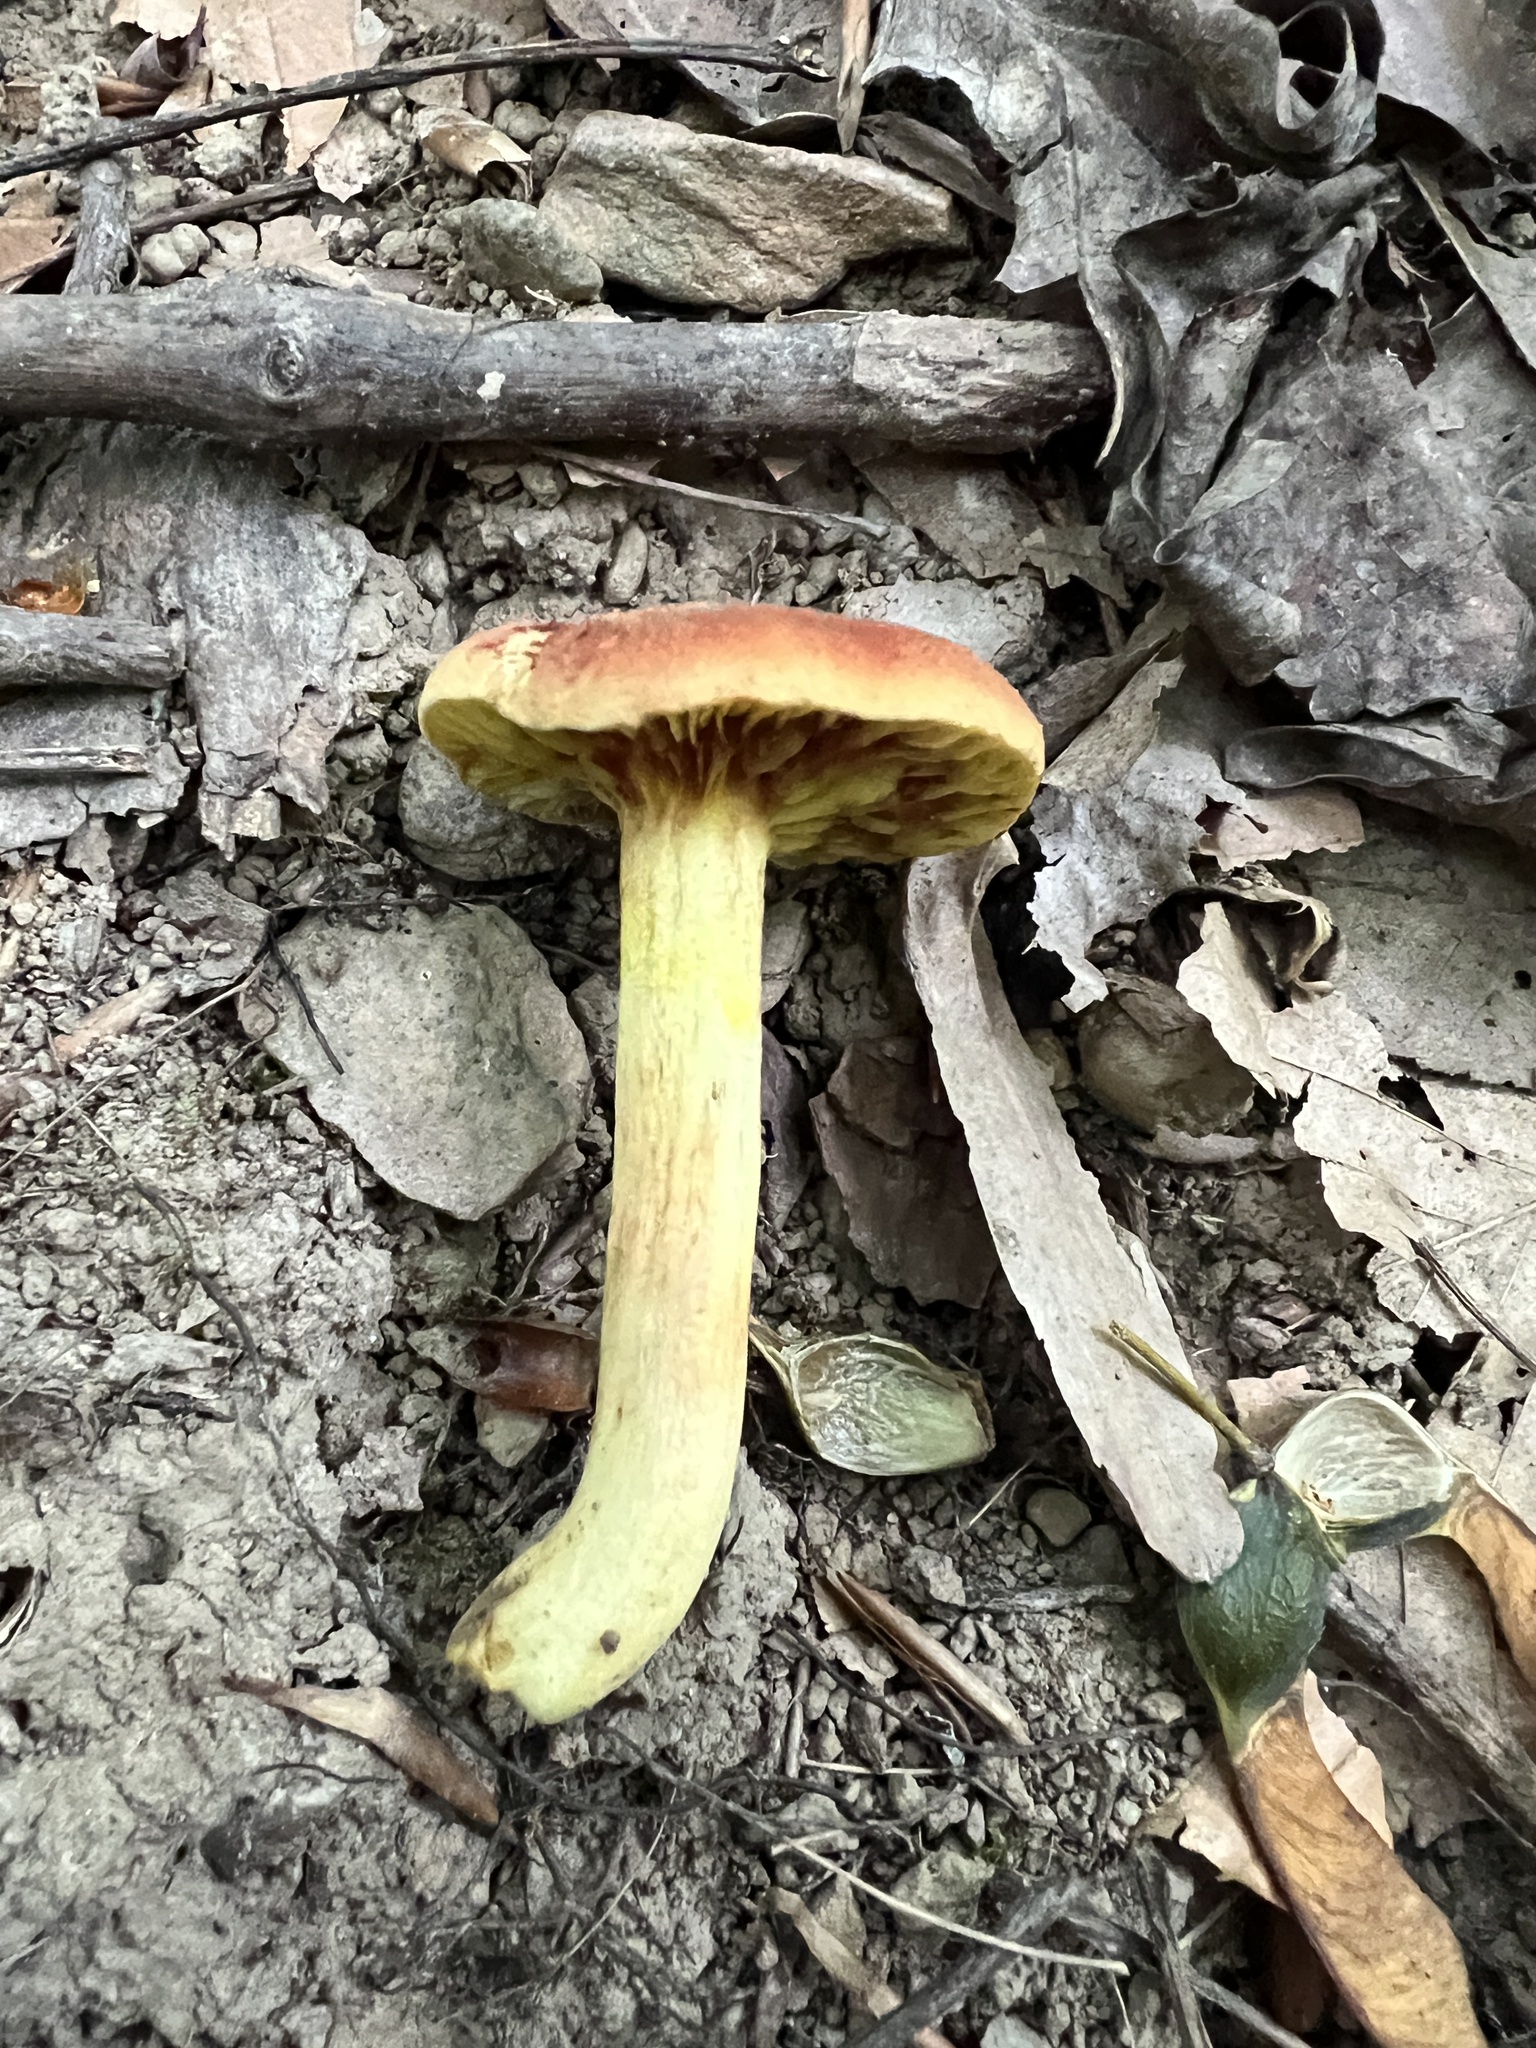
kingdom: Fungi
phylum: Basidiomycota
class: Agaricomycetes
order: Boletales
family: Boletaceae
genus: Phylloporus
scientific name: Phylloporus leucomycelinus
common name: Gilled bolete
